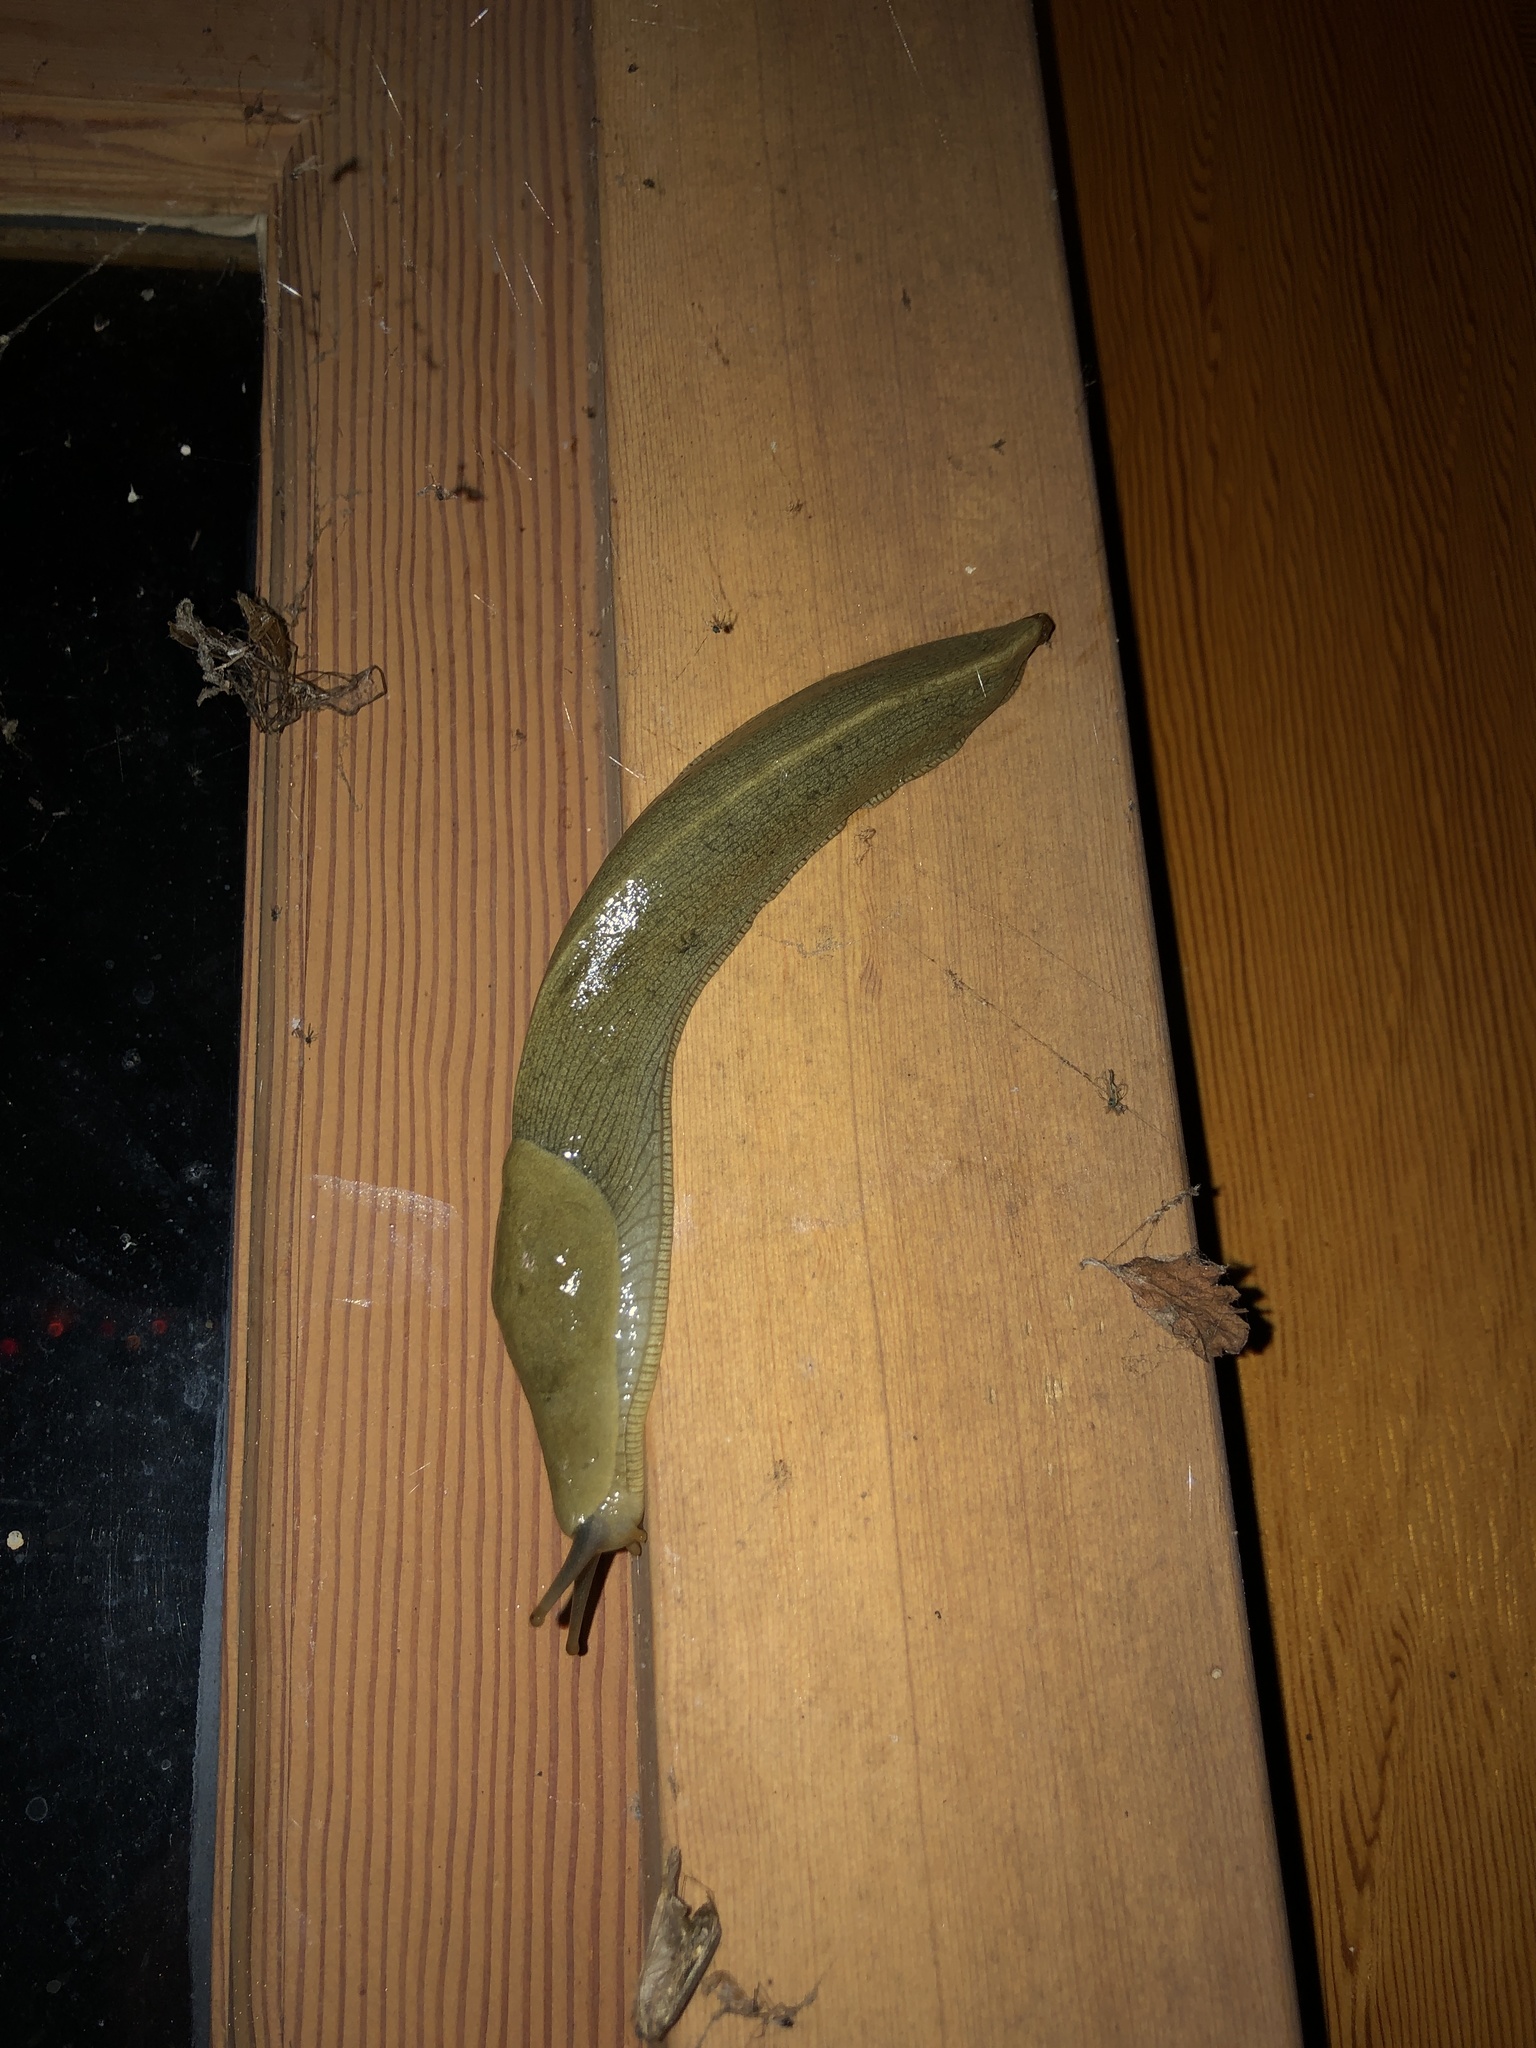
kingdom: Animalia
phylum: Mollusca
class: Gastropoda
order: Stylommatophora
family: Ariolimacidae
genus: Ariolimax
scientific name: Ariolimax columbianus
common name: Pacific banana slug
